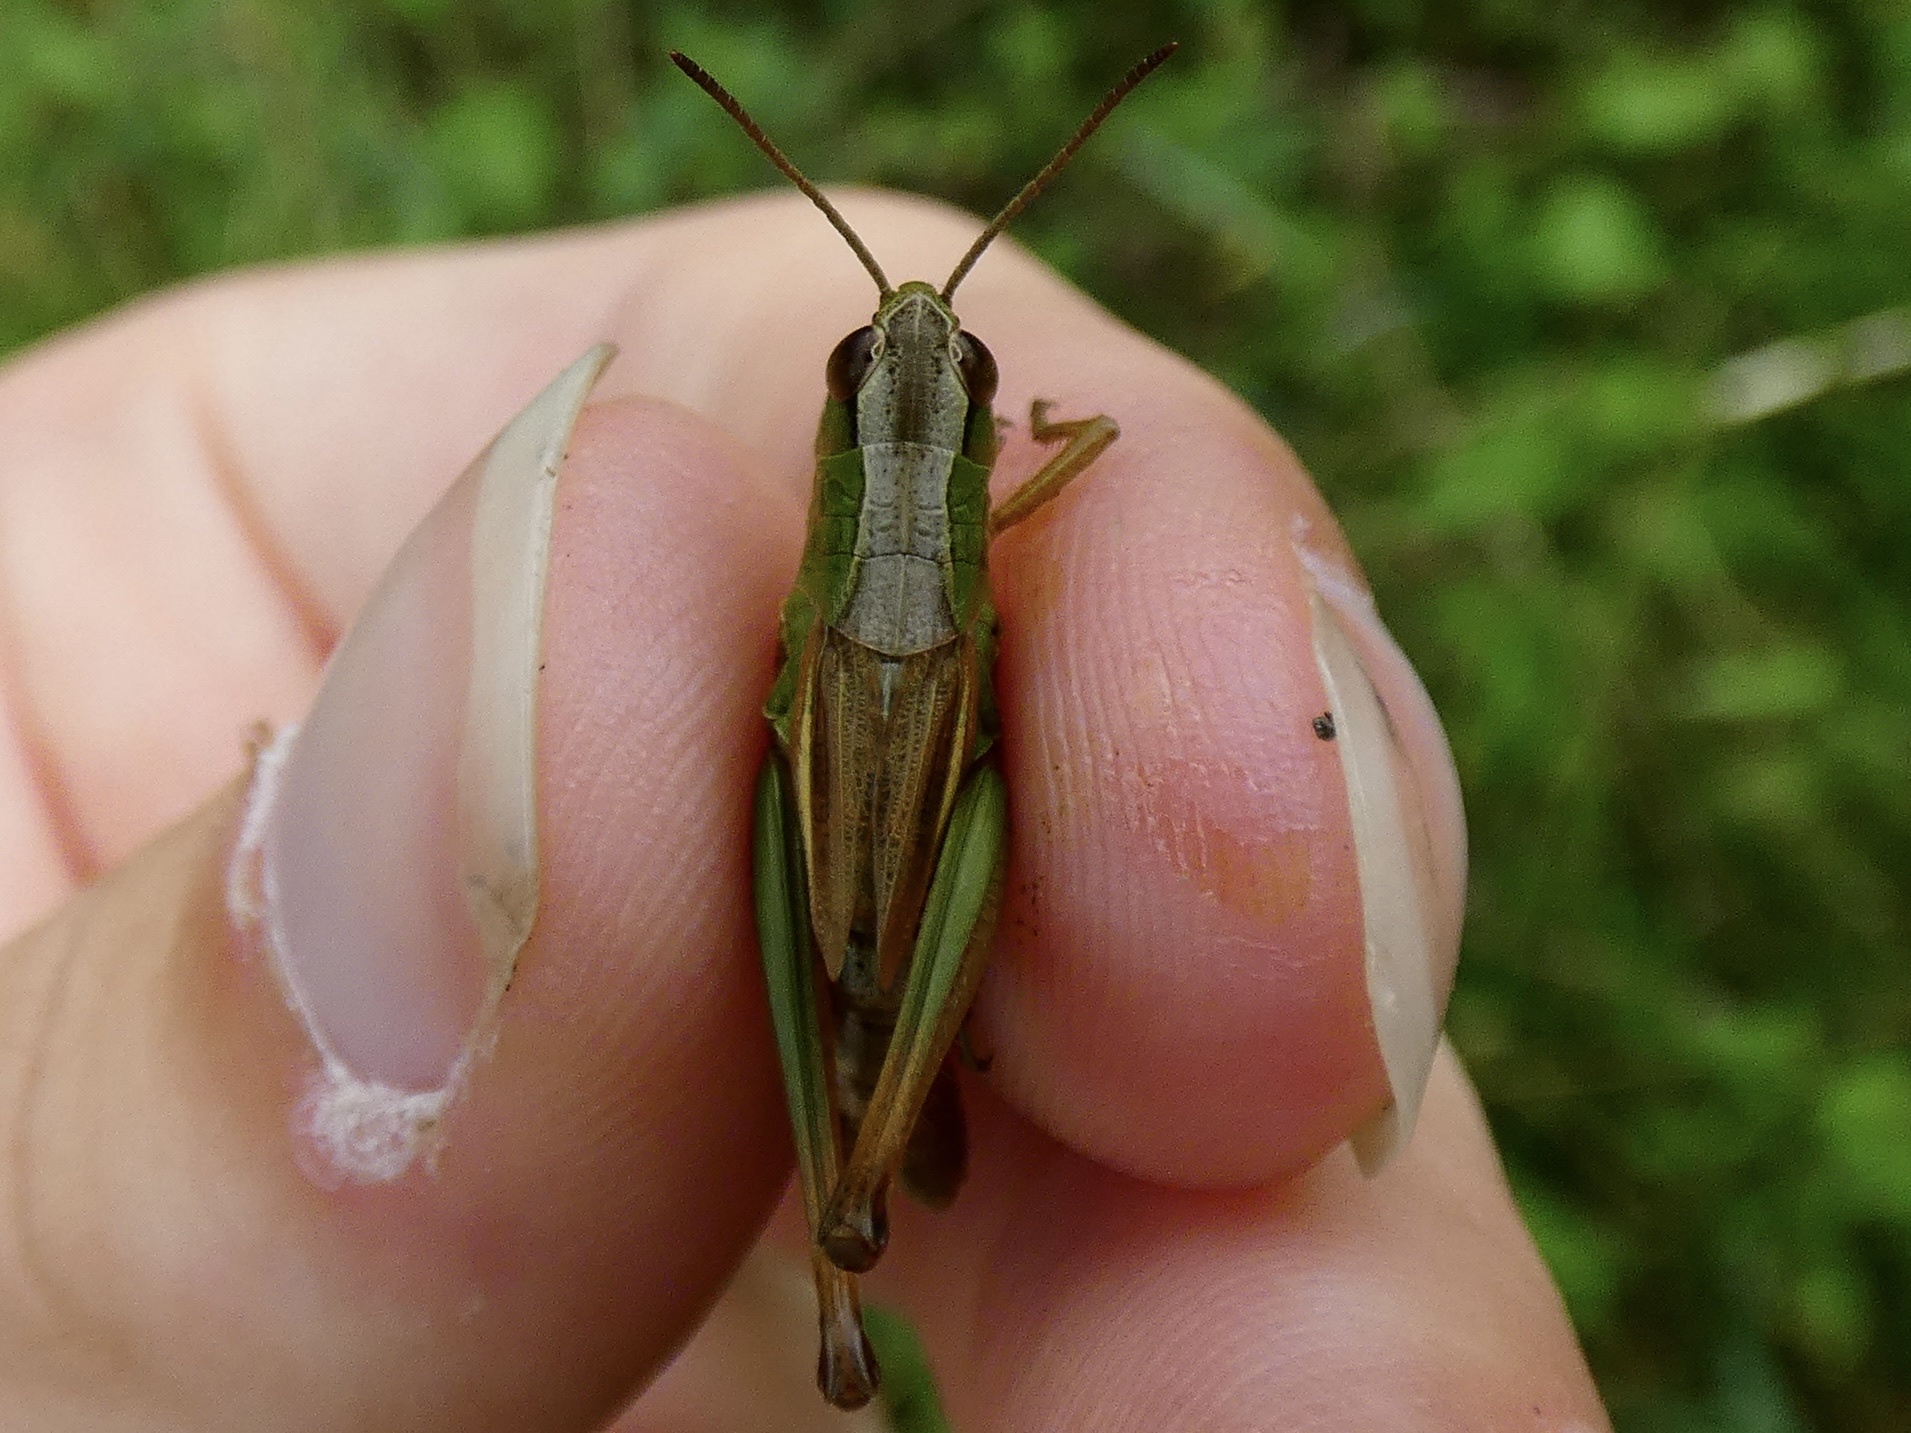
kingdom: Animalia
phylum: Arthropoda
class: Insecta
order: Orthoptera
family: Acrididae
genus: Pseudochorthippus
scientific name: Pseudochorthippus parallelus
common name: Meadow grasshopper
